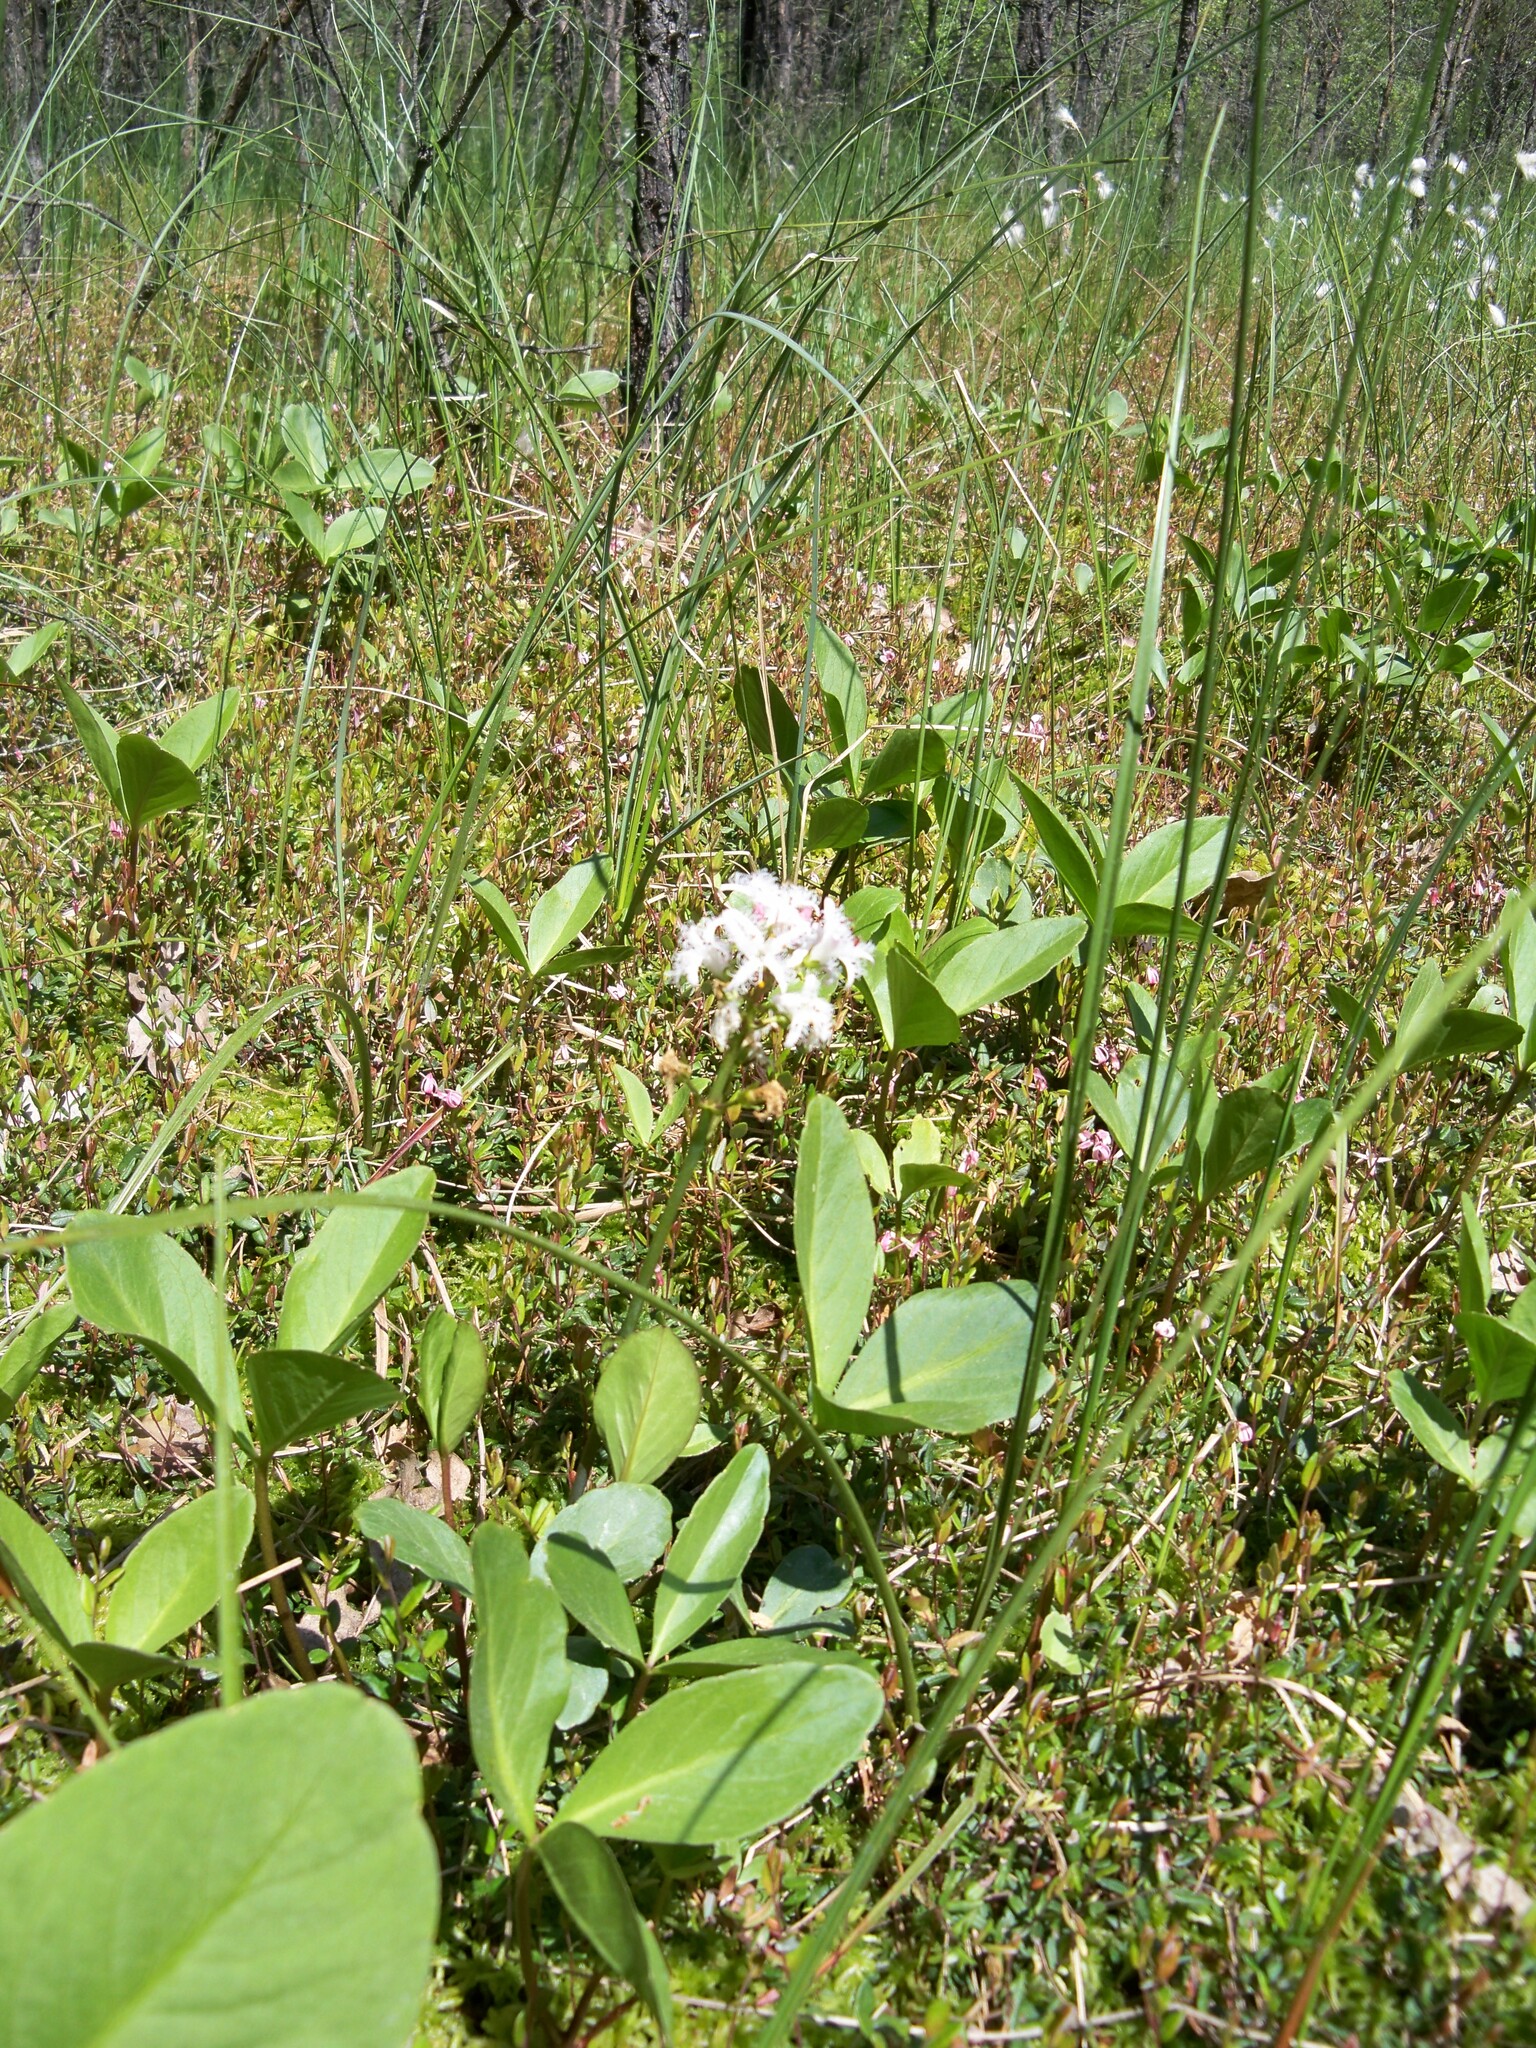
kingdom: Plantae
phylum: Tracheophyta
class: Magnoliopsida
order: Asterales
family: Menyanthaceae
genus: Menyanthes
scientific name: Menyanthes trifoliata
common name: Bogbean
